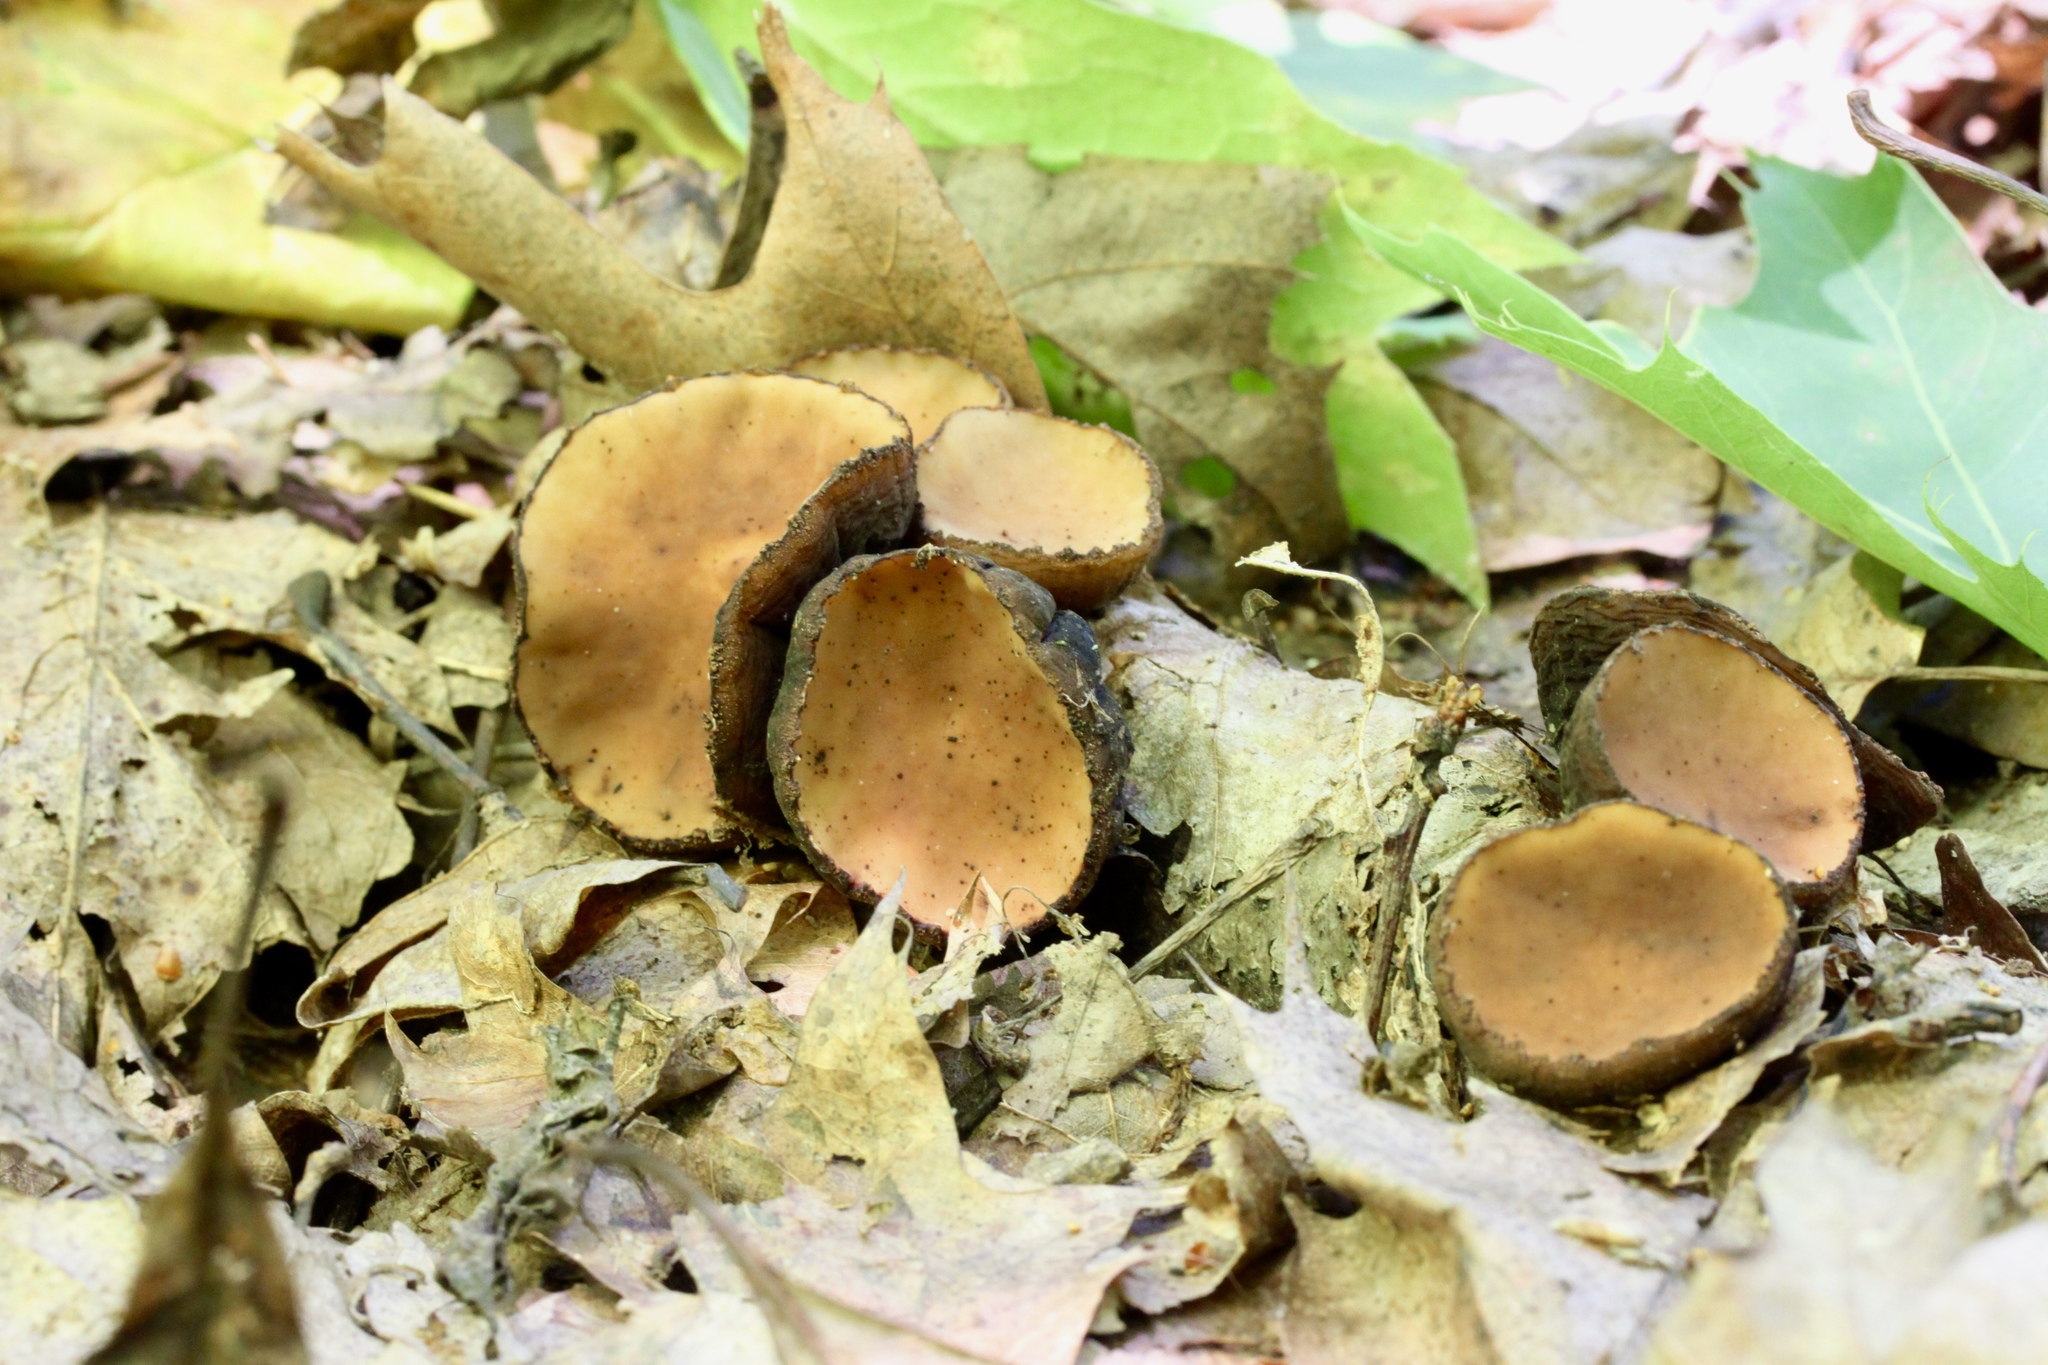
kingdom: Fungi
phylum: Ascomycota
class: Pezizomycetes
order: Pezizales
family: Sarcosomataceae
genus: Galiella
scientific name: Galiella rufa
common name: Hairy rubber cup
